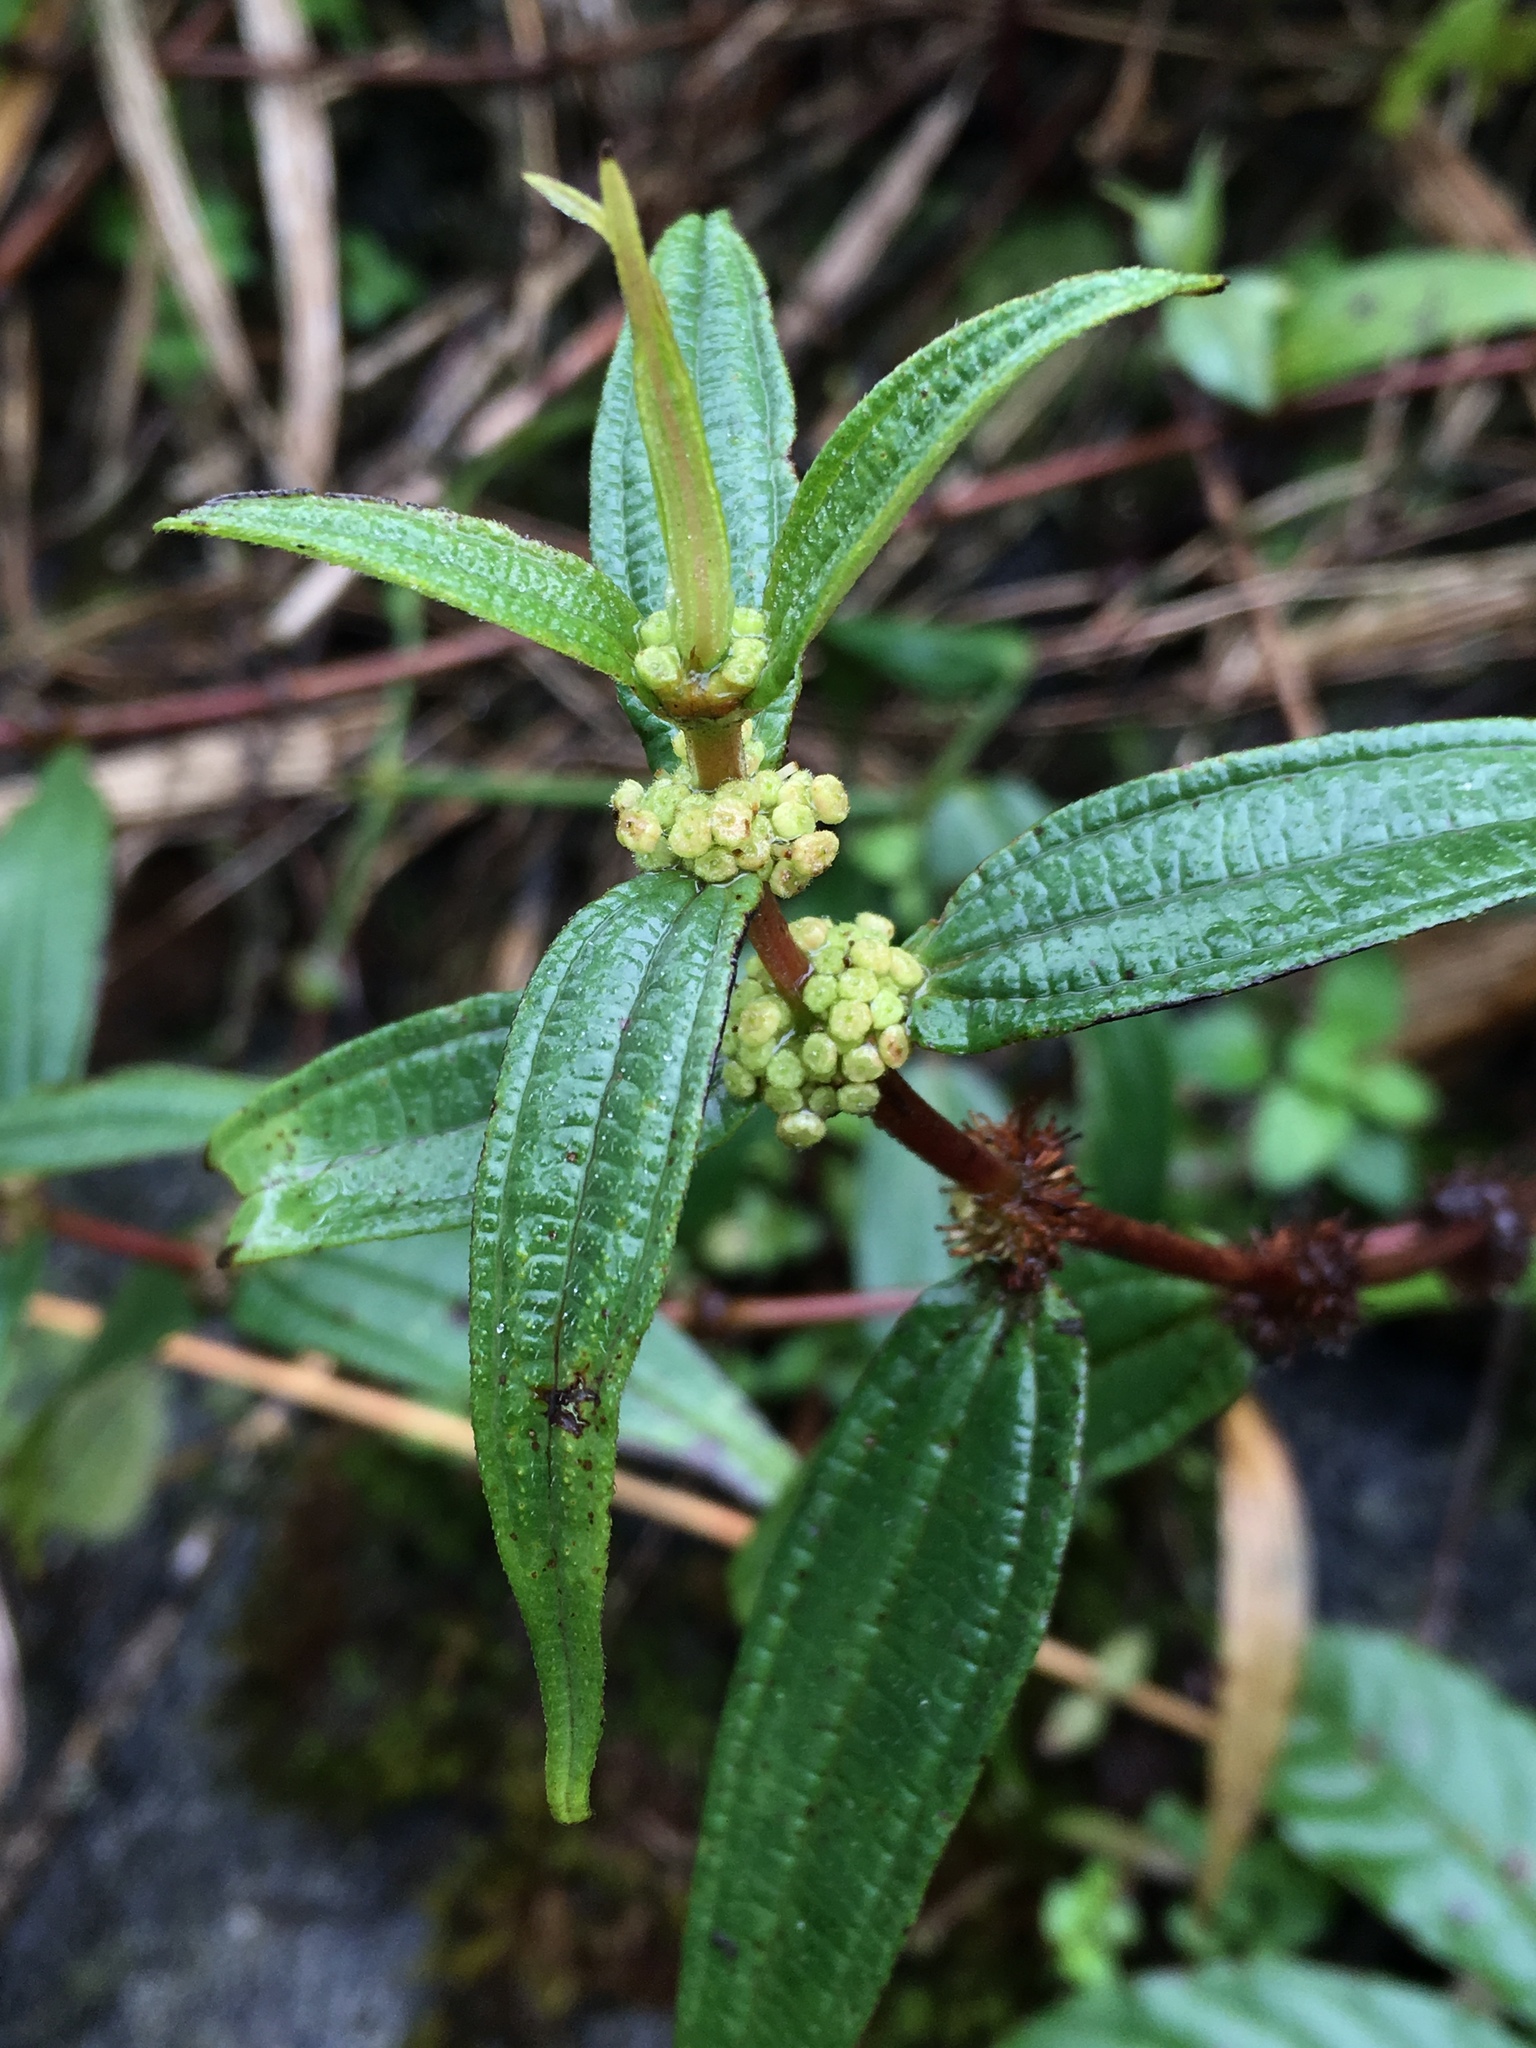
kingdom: Plantae
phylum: Tracheophyta
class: Magnoliopsida
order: Rosales
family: Urticaceae
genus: Gonostegia
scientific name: Gonostegia triandra
